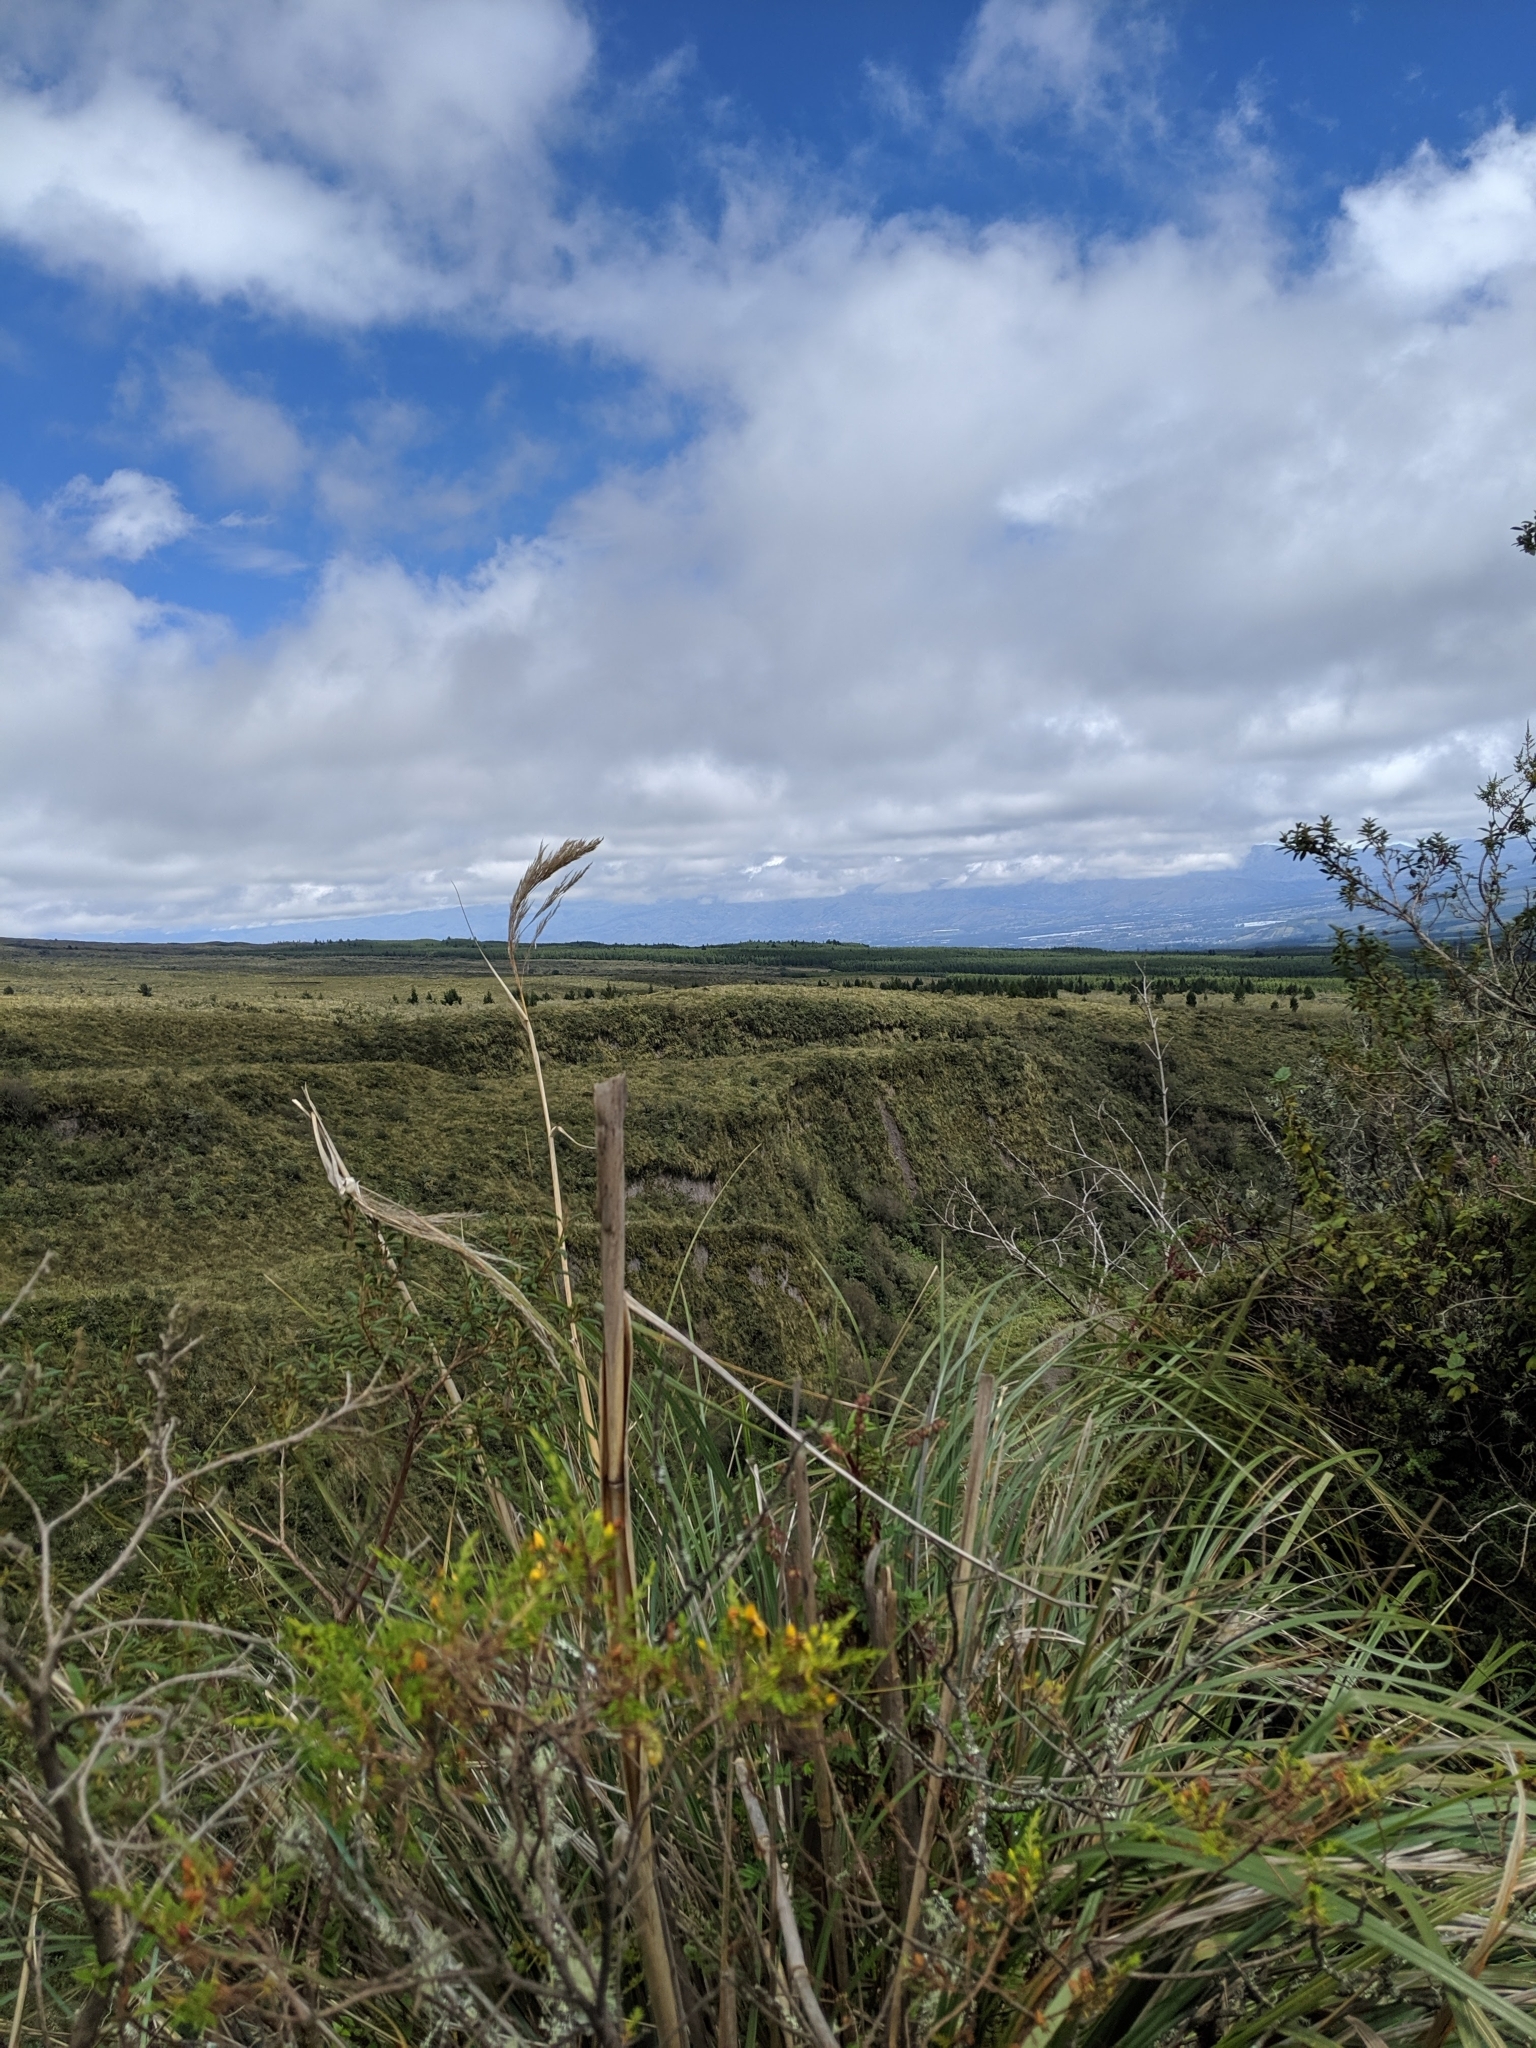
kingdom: Plantae
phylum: Tracheophyta
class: Magnoliopsida
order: Gentianales
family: Gentianaceae
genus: Gentianella
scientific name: Gentianella cerastioides
